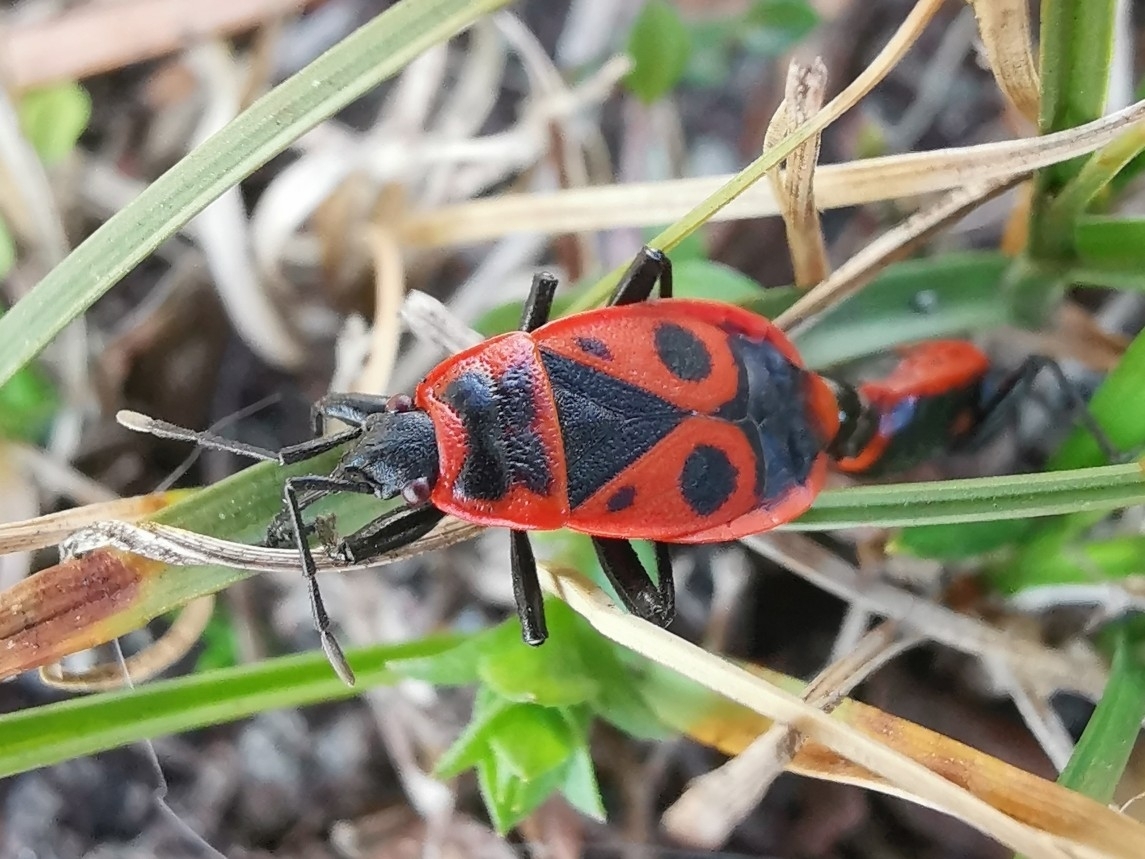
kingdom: Animalia
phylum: Arthropoda
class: Insecta
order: Hemiptera
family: Pyrrhocoridae
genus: Pyrrhocoris
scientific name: Pyrrhocoris apterus
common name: Firebug
